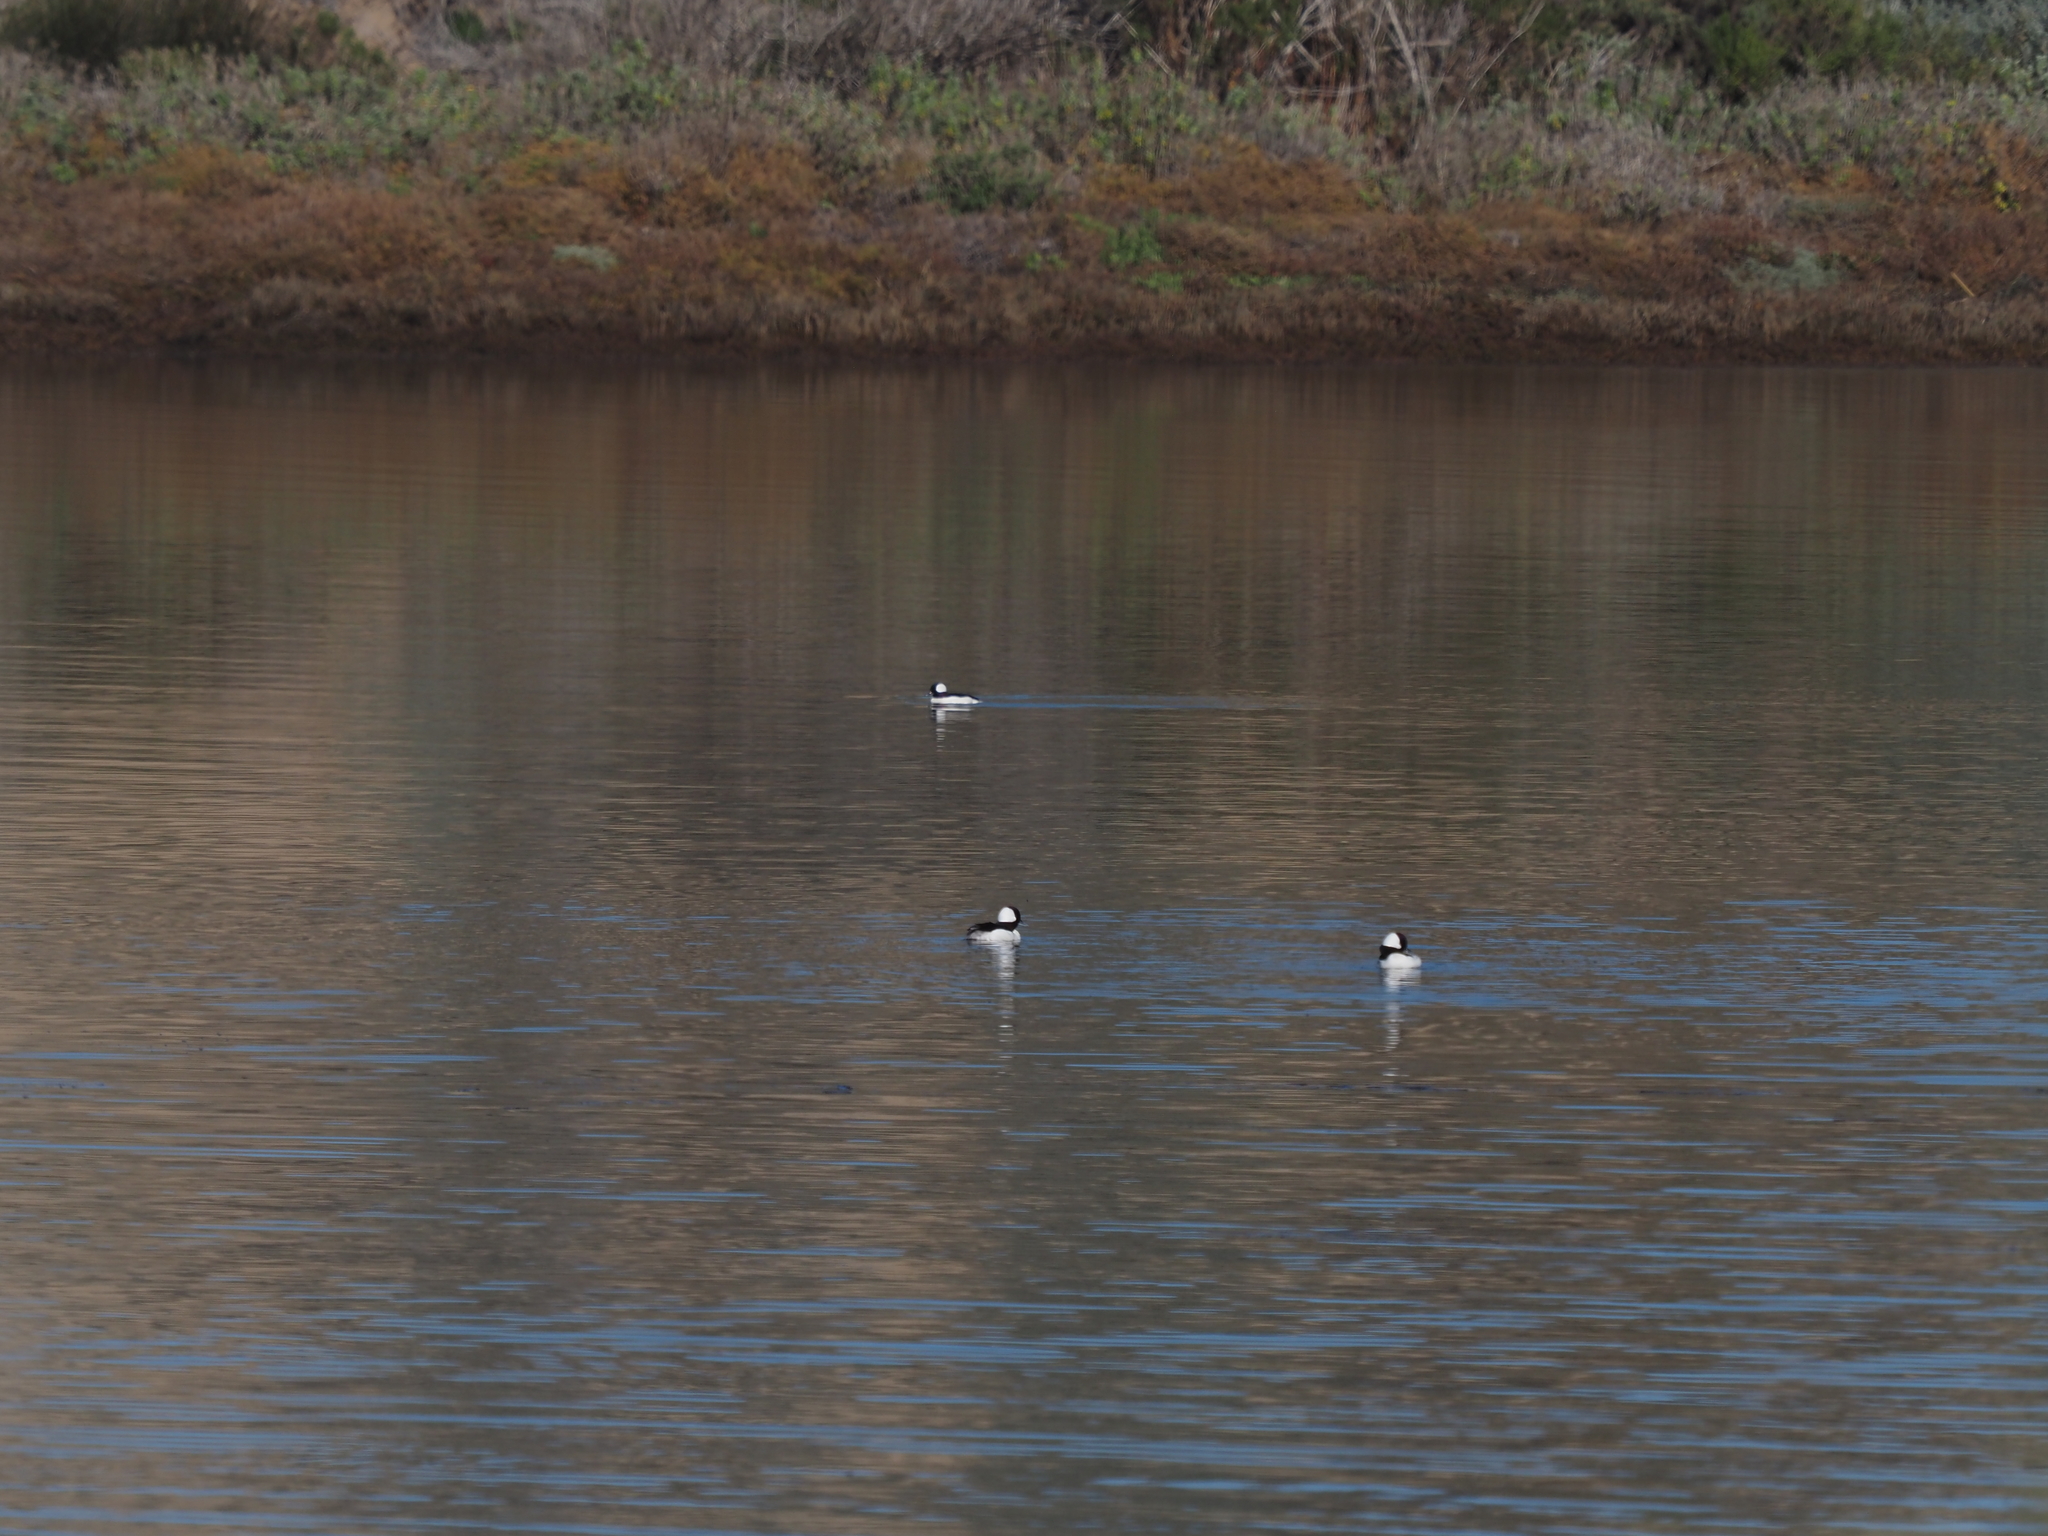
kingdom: Animalia
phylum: Chordata
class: Aves
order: Anseriformes
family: Anatidae
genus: Bucephala
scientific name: Bucephala albeola
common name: Bufflehead
